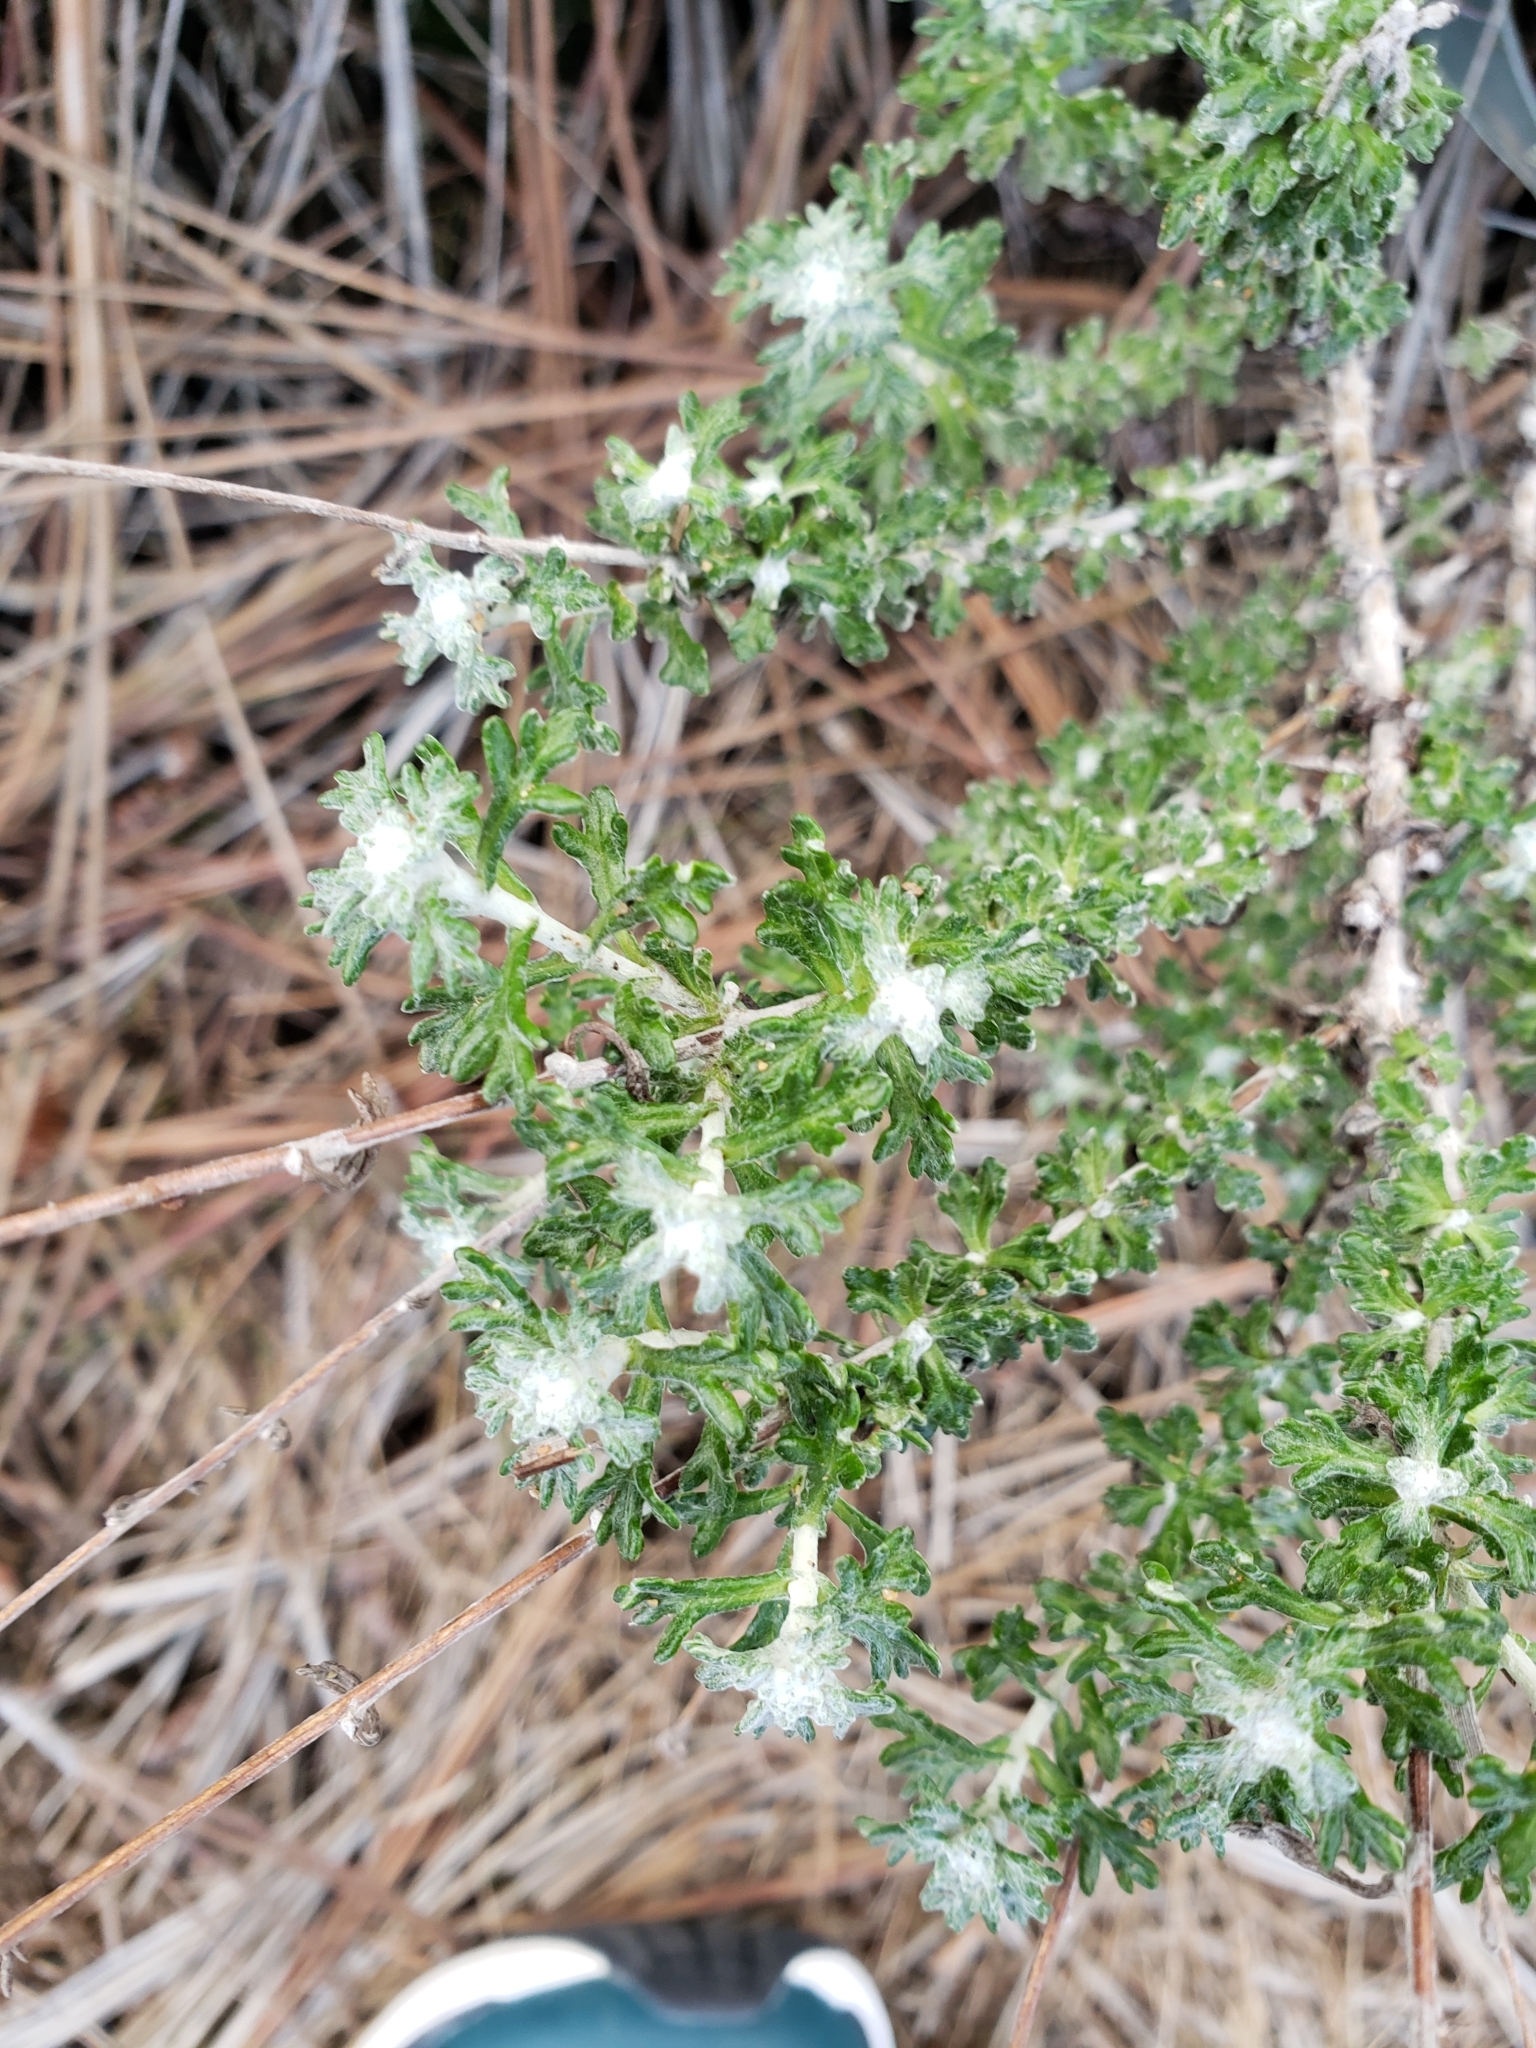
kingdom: Plantae
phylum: Tracheophyta
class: Magnoliopsida
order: Asterales
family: Asteraceae
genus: Eriophyllum
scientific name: Eriophyllum confertiflorum
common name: Golden-yarrow
